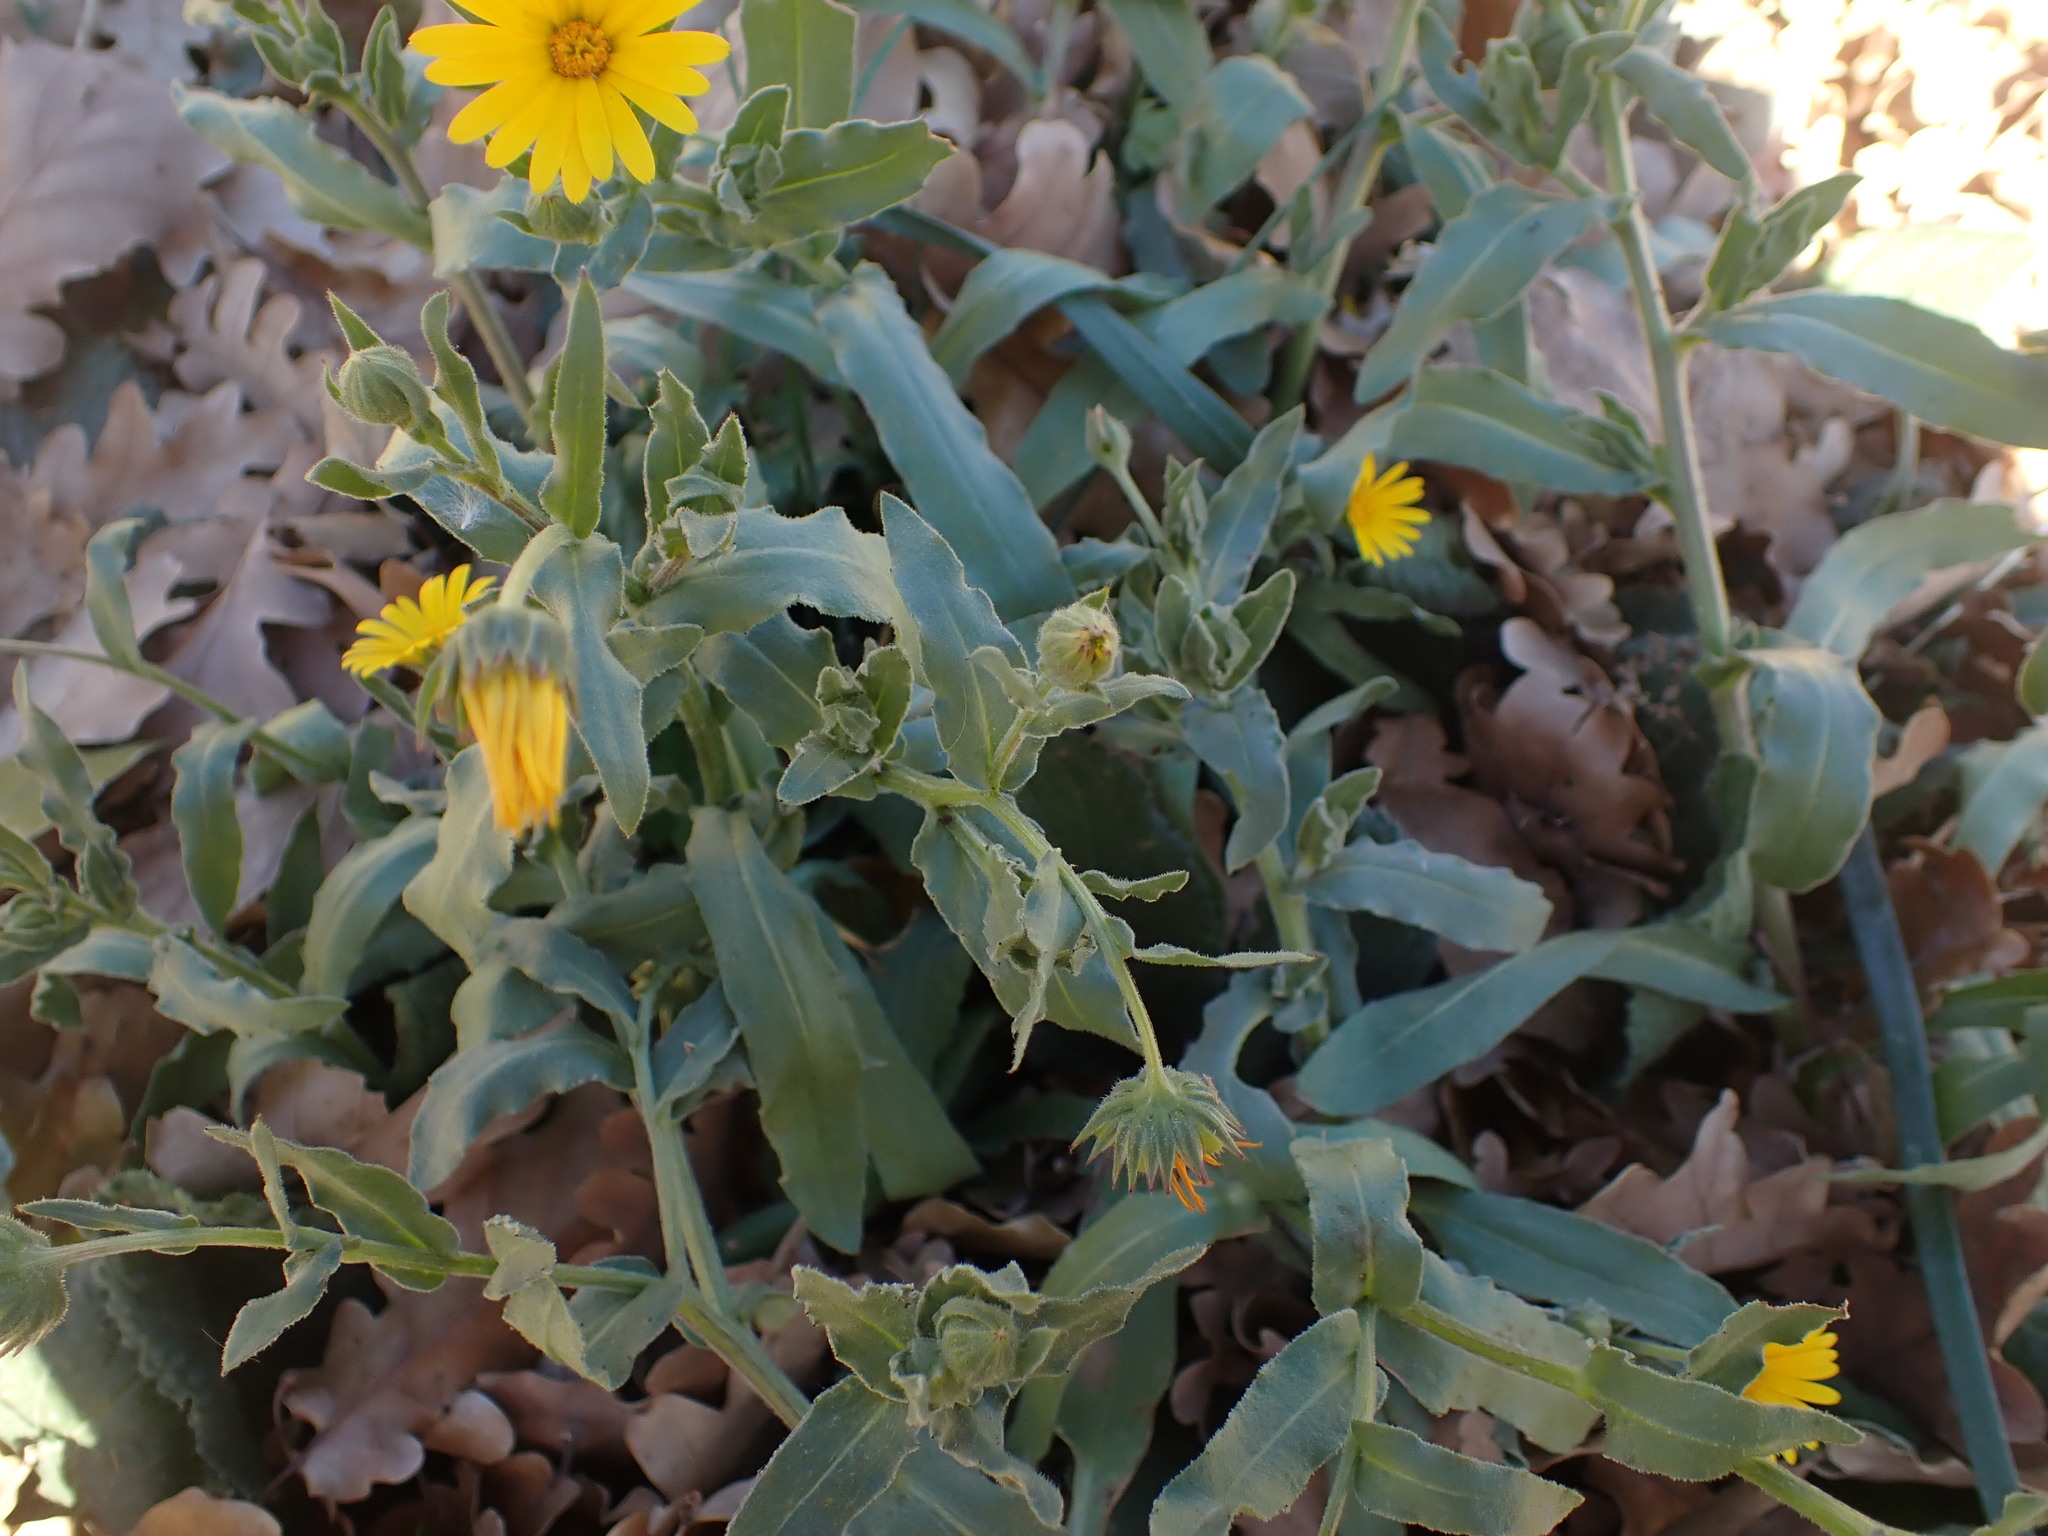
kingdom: Plantae
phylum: Tracheophyta
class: Magnoliopsida
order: Asterales
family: Asteraceae
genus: Calendula
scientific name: Calendula arvensis
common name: Field marigold
